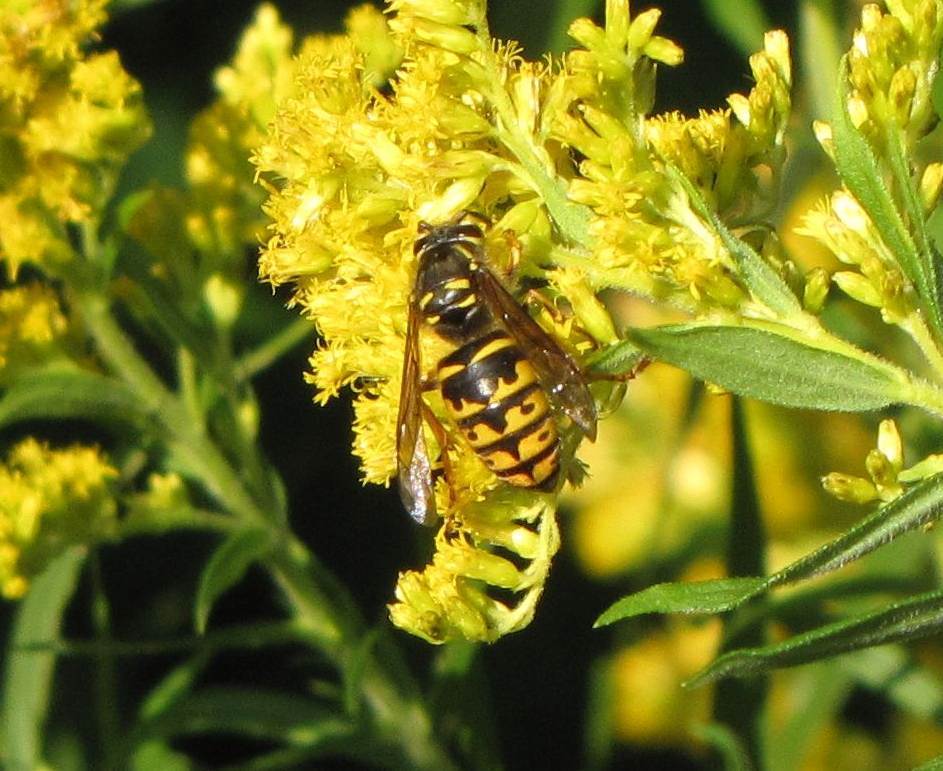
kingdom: Animalia
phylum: Arthropoda
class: Insecta
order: Hymenoptera
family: Vespidae
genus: Dolichovespula
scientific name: Dolichovespula arenaria
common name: Aerial yellowjacket
